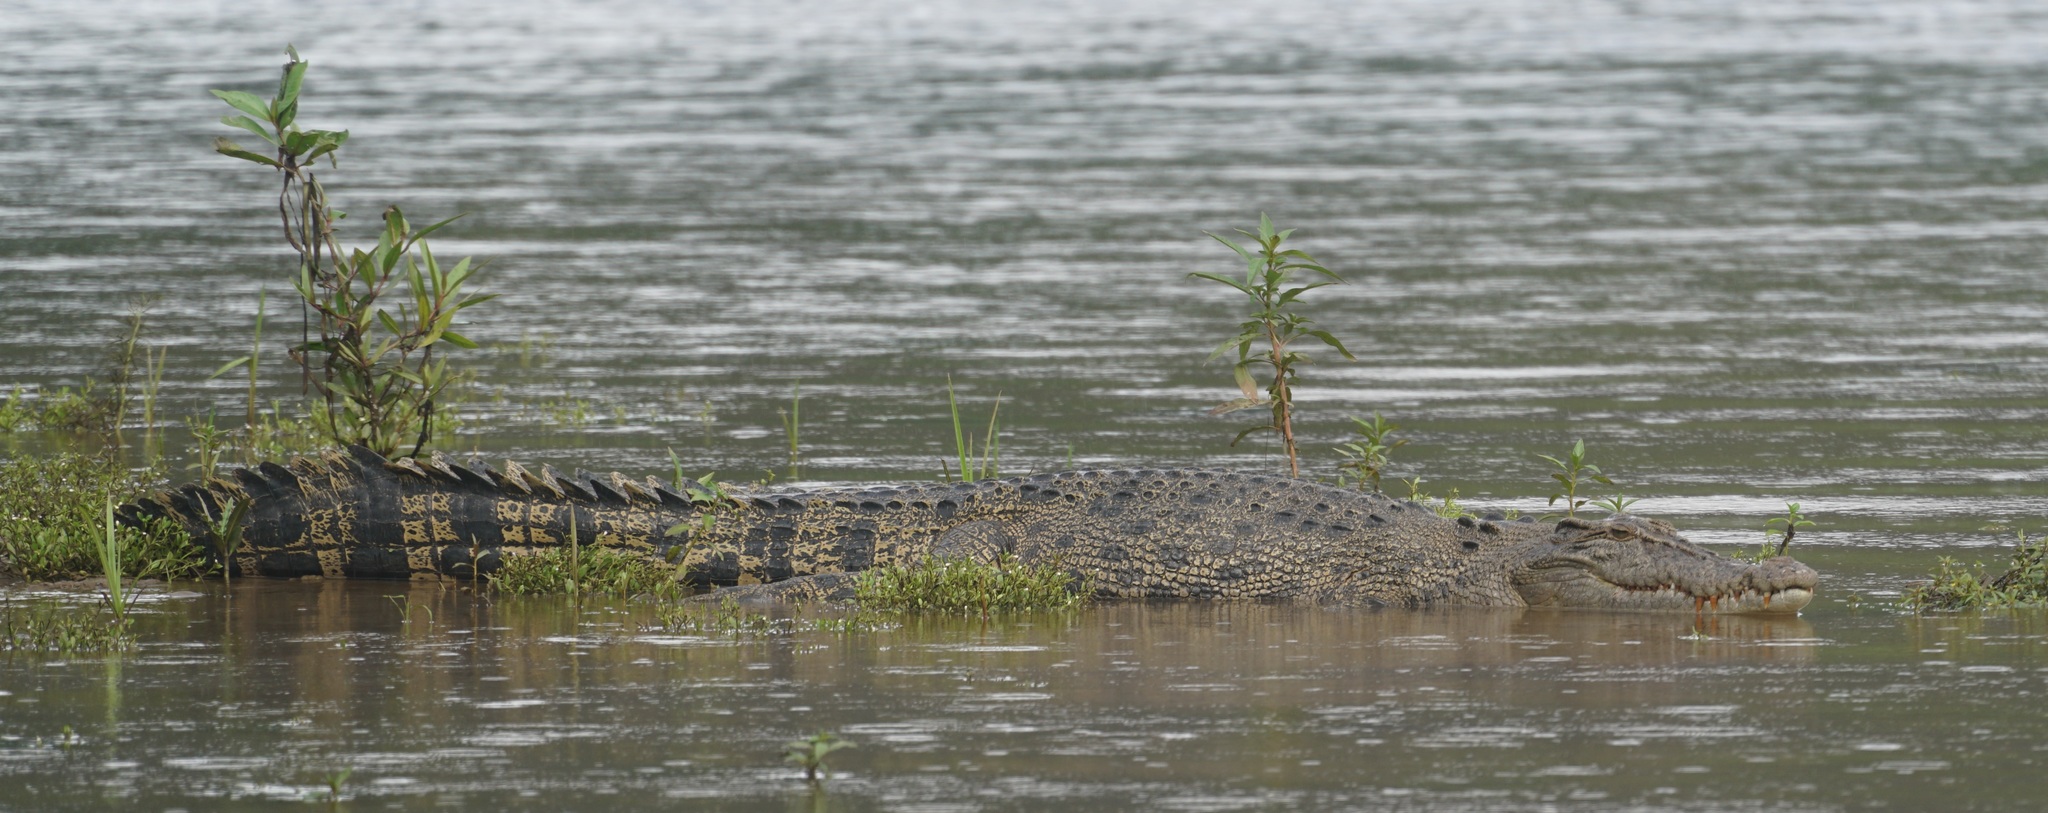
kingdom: Animalia
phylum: Chordata
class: Crocodylia
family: Crocodylidae
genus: Crocodylus
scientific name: Crocodylus porosus
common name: Saltwater crocodile
